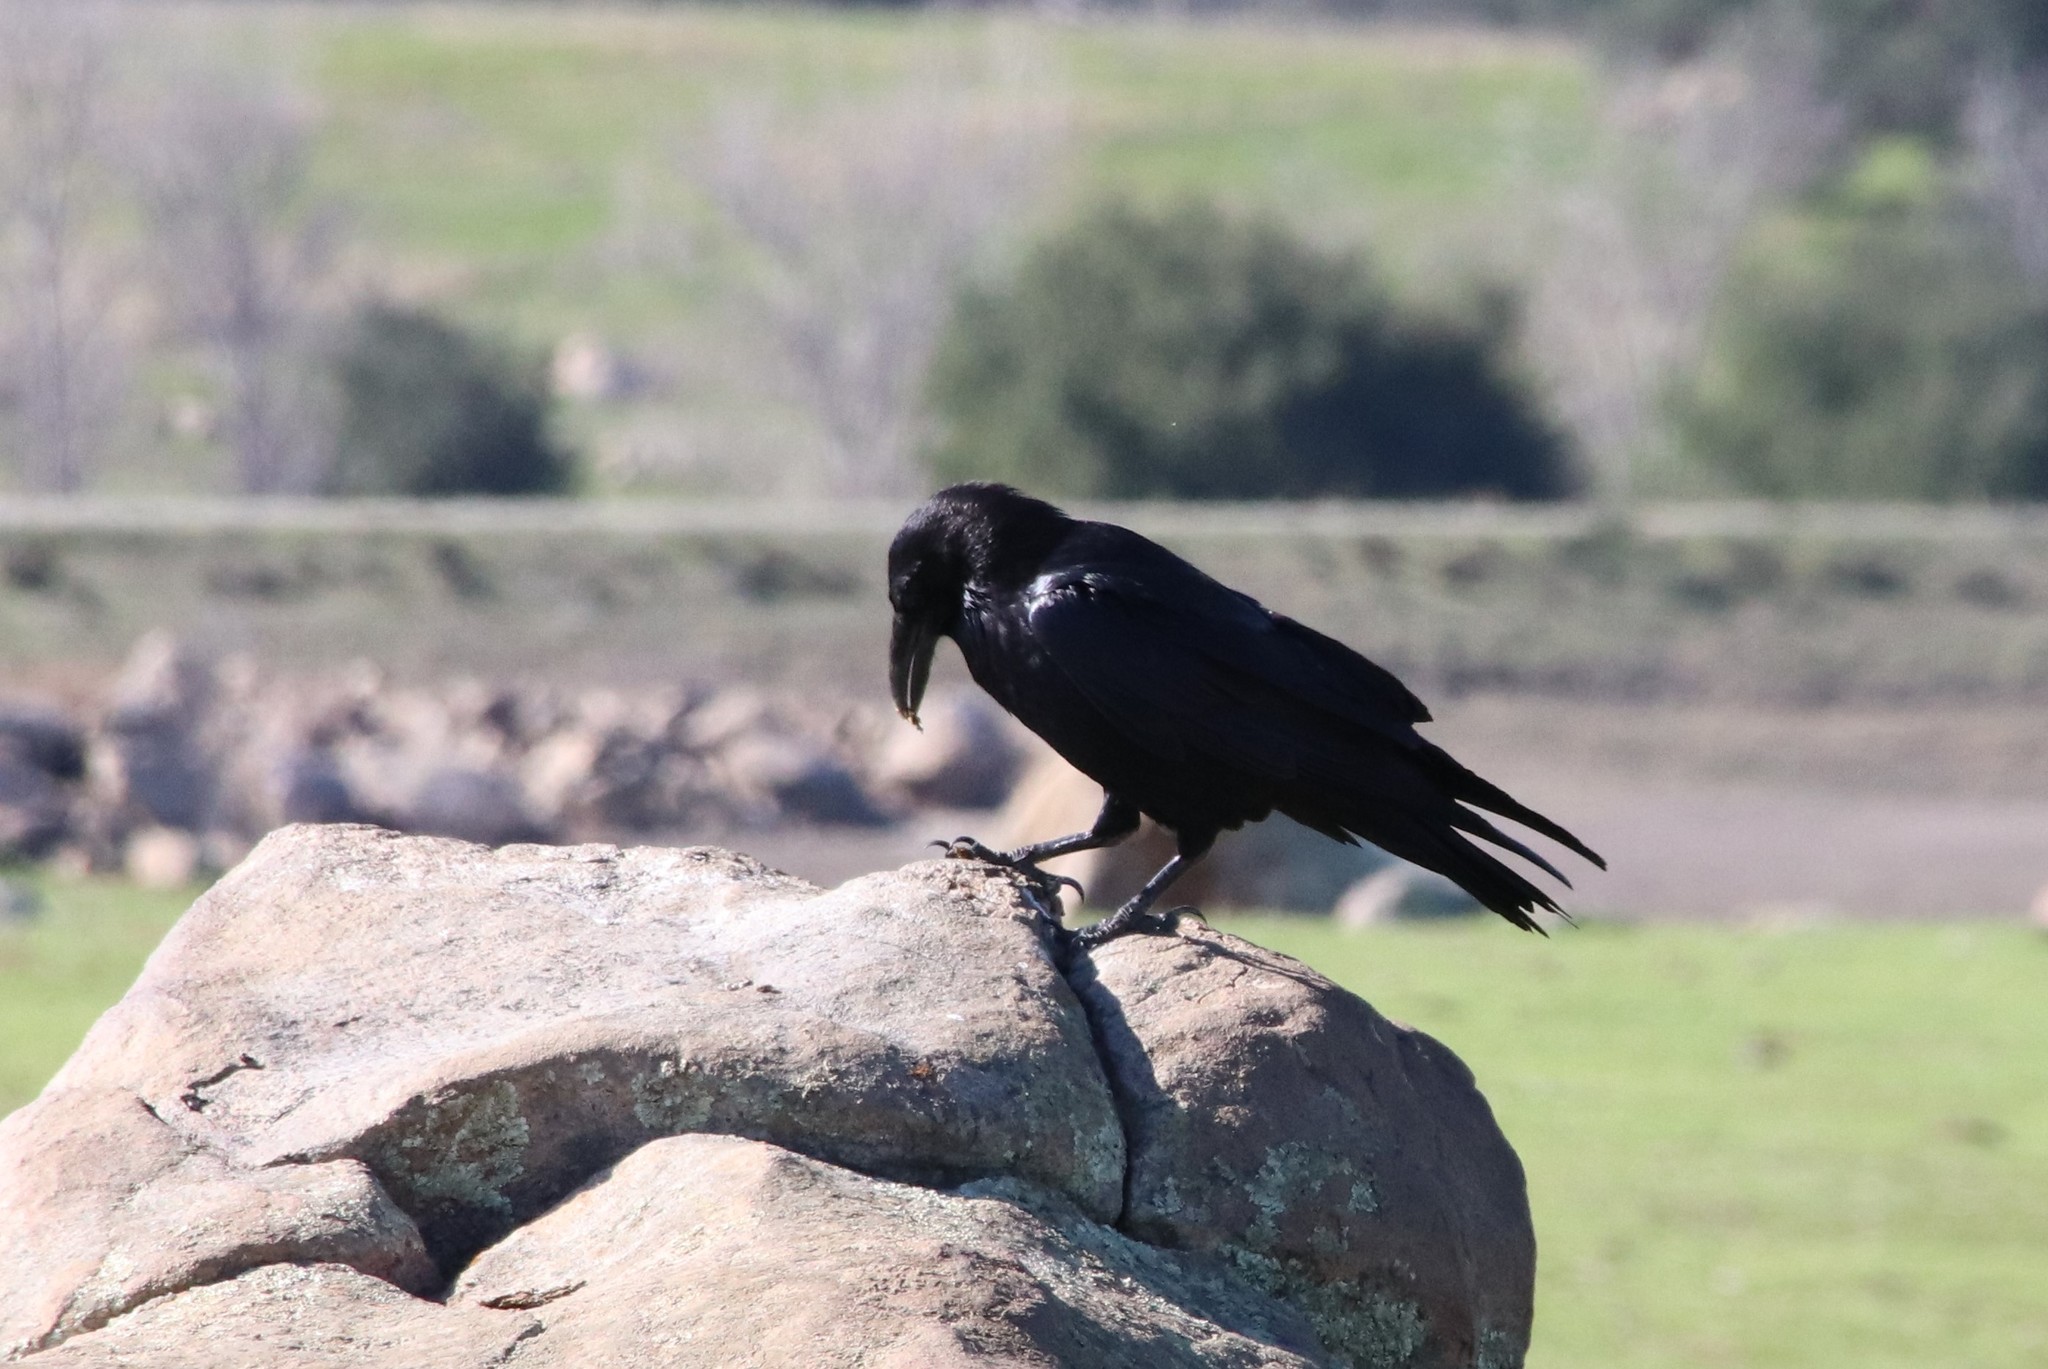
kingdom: Animalia
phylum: Chordata
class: Aves
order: Passeriformes
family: Corvidae
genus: Corvus
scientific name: Corvus corax
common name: Common raven
